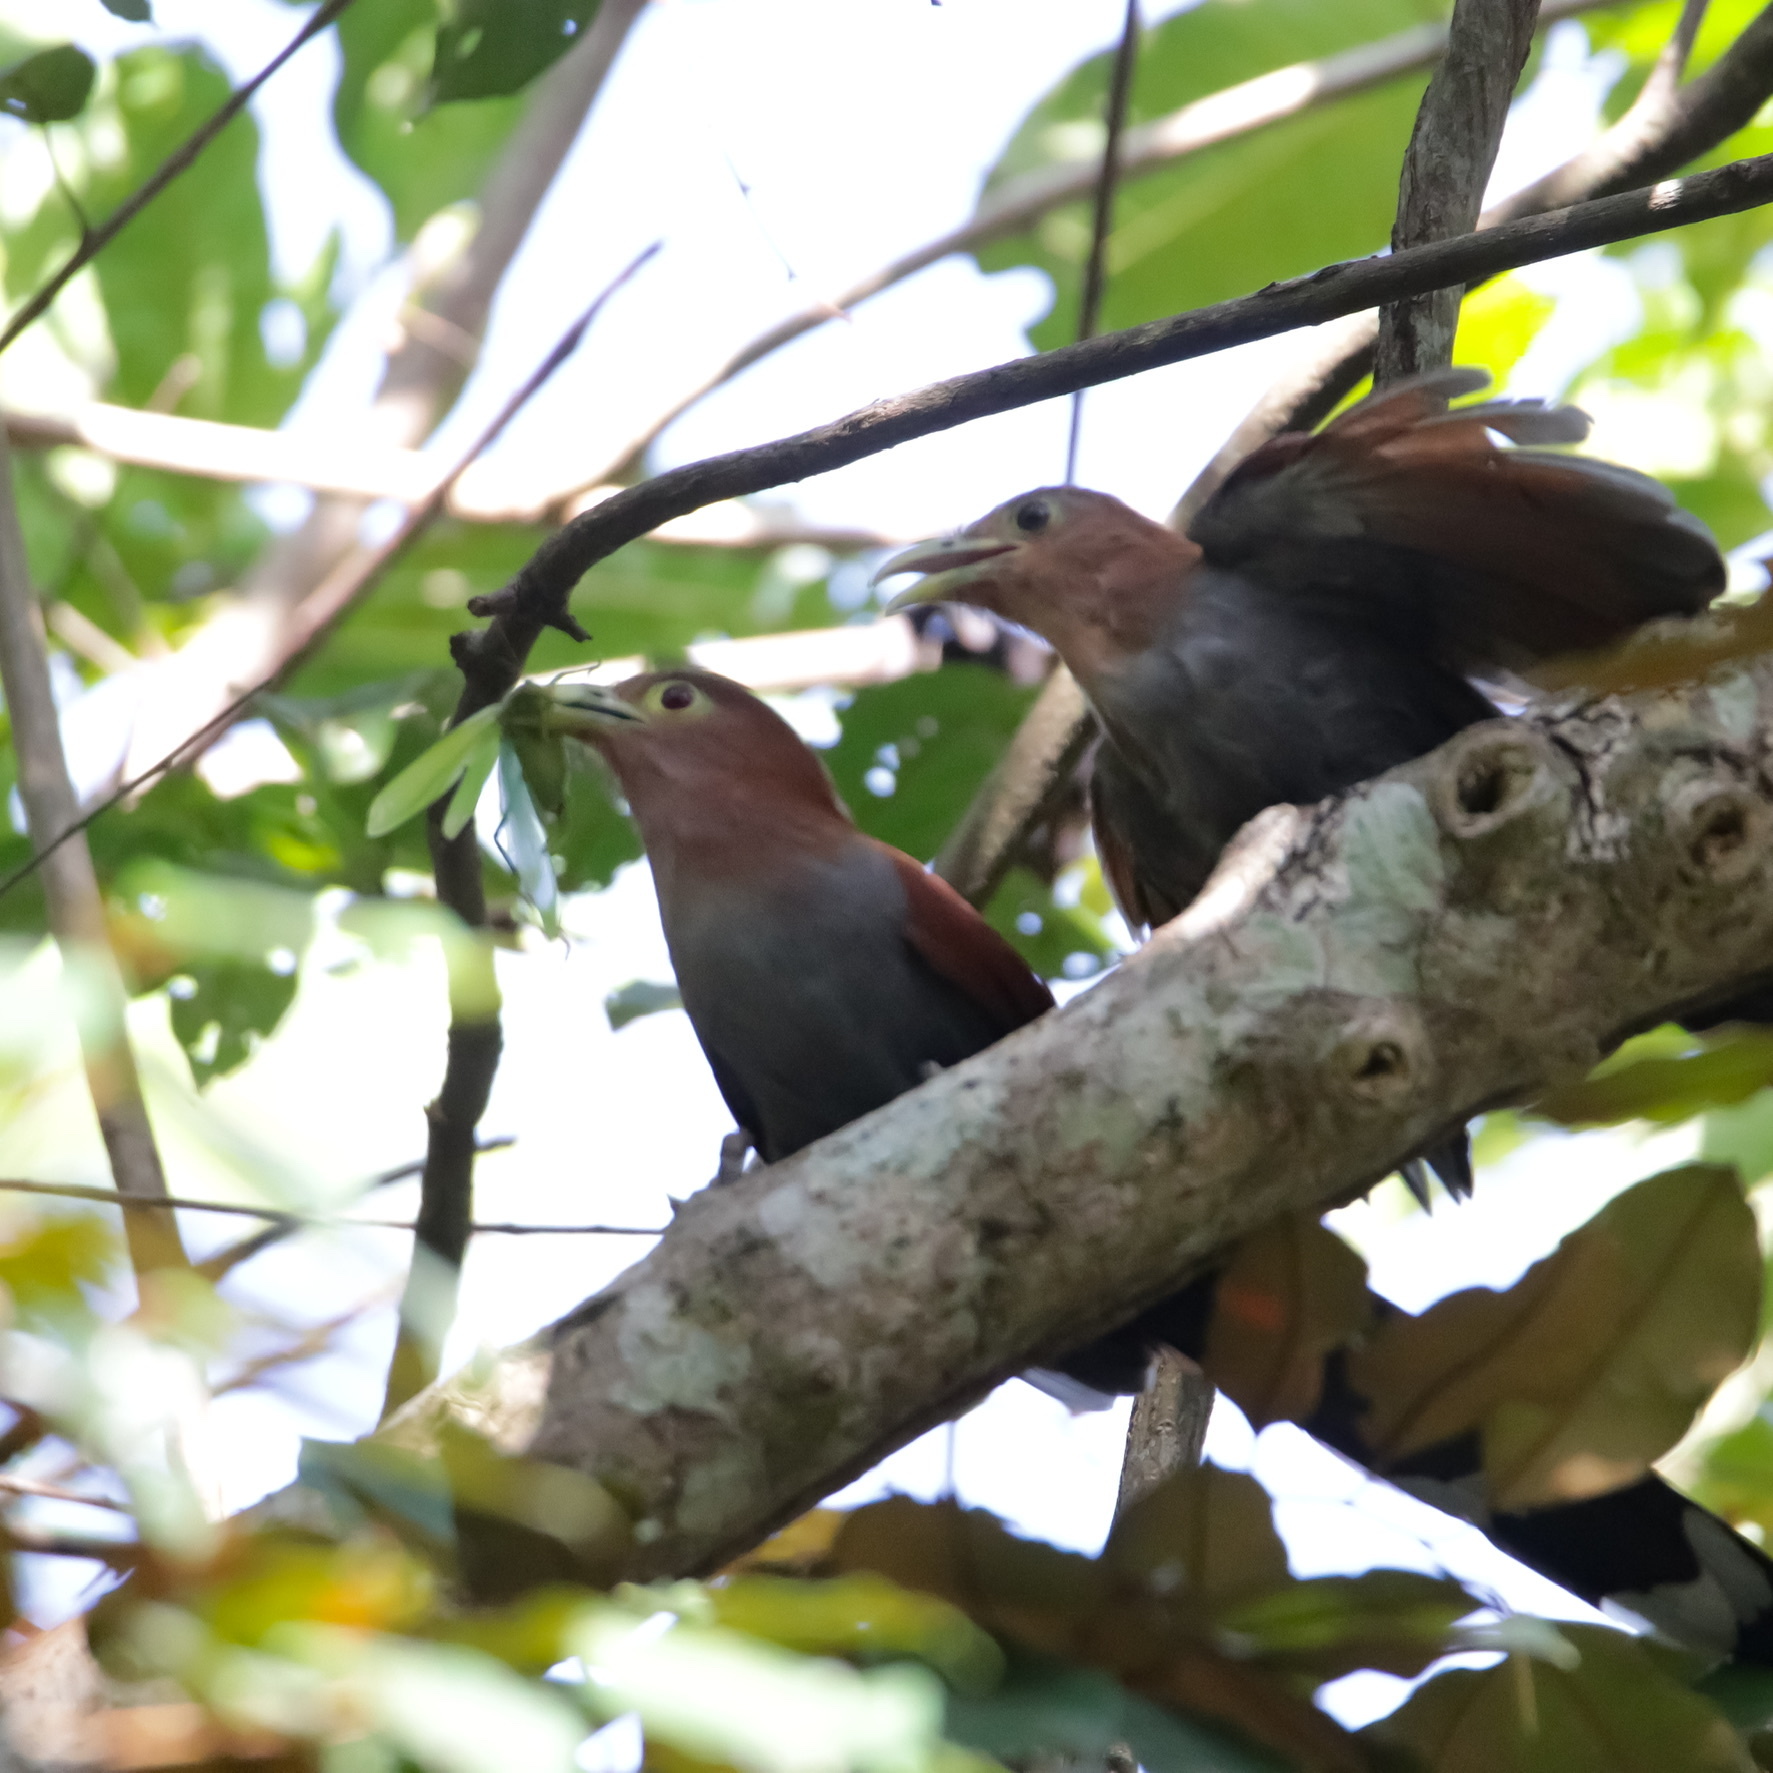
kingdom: Animalia
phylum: Chordata
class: Aves
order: Cuculiformes
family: Cuculidae
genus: Piaya
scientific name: Piaya cayana
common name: Squirrel cuckoo
